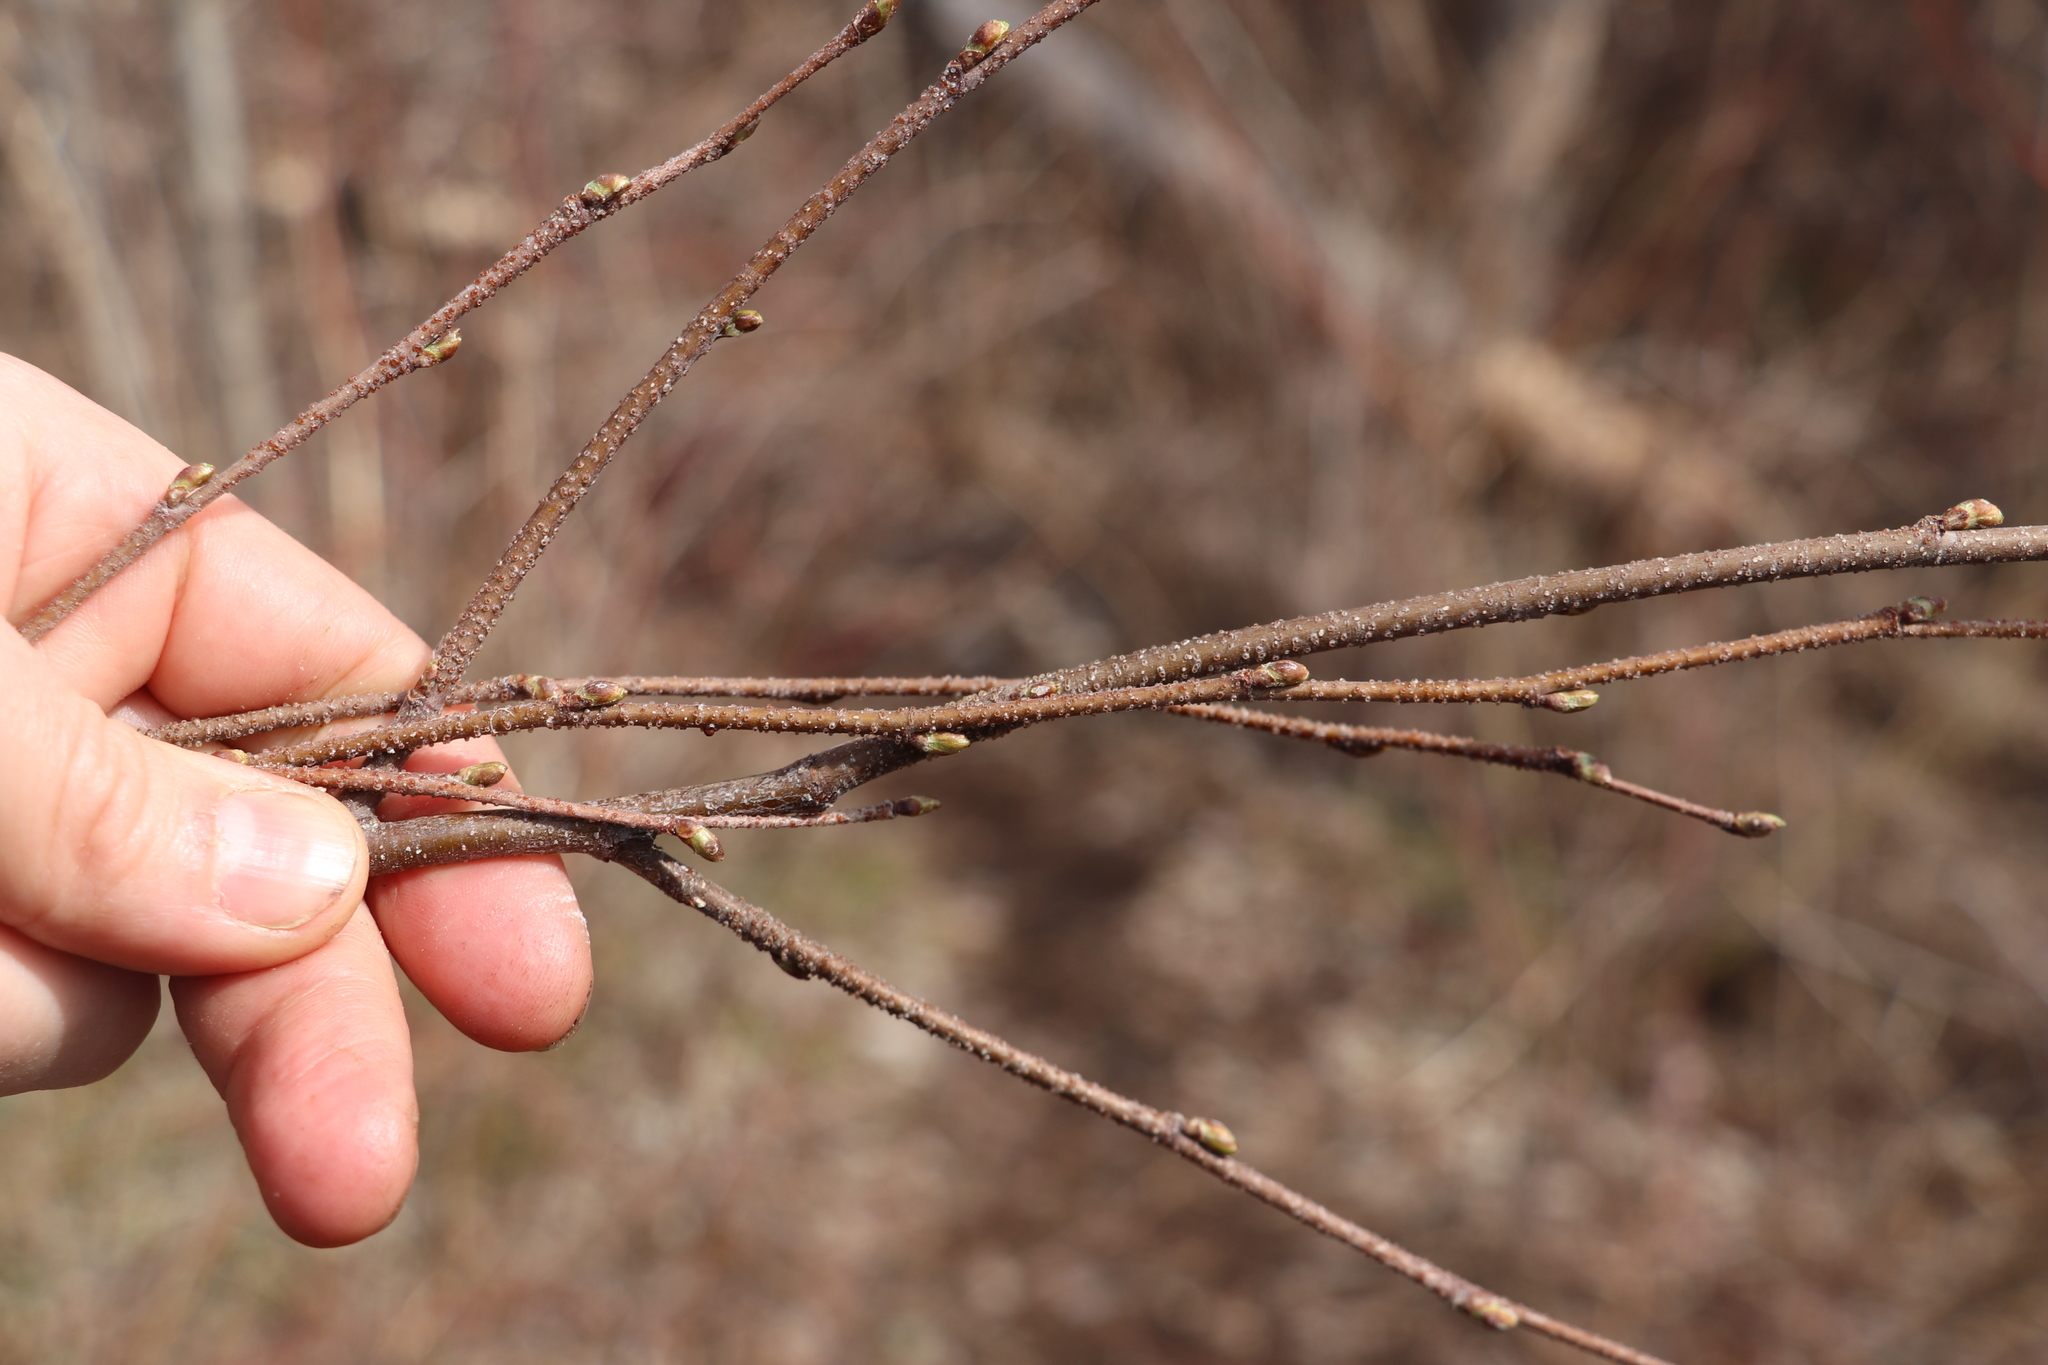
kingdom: Plantae
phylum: Tracheophyta
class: Magnoliopsida
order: Fagales
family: Betulaceae
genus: Betula
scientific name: Betula pendula
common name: Silver birch
